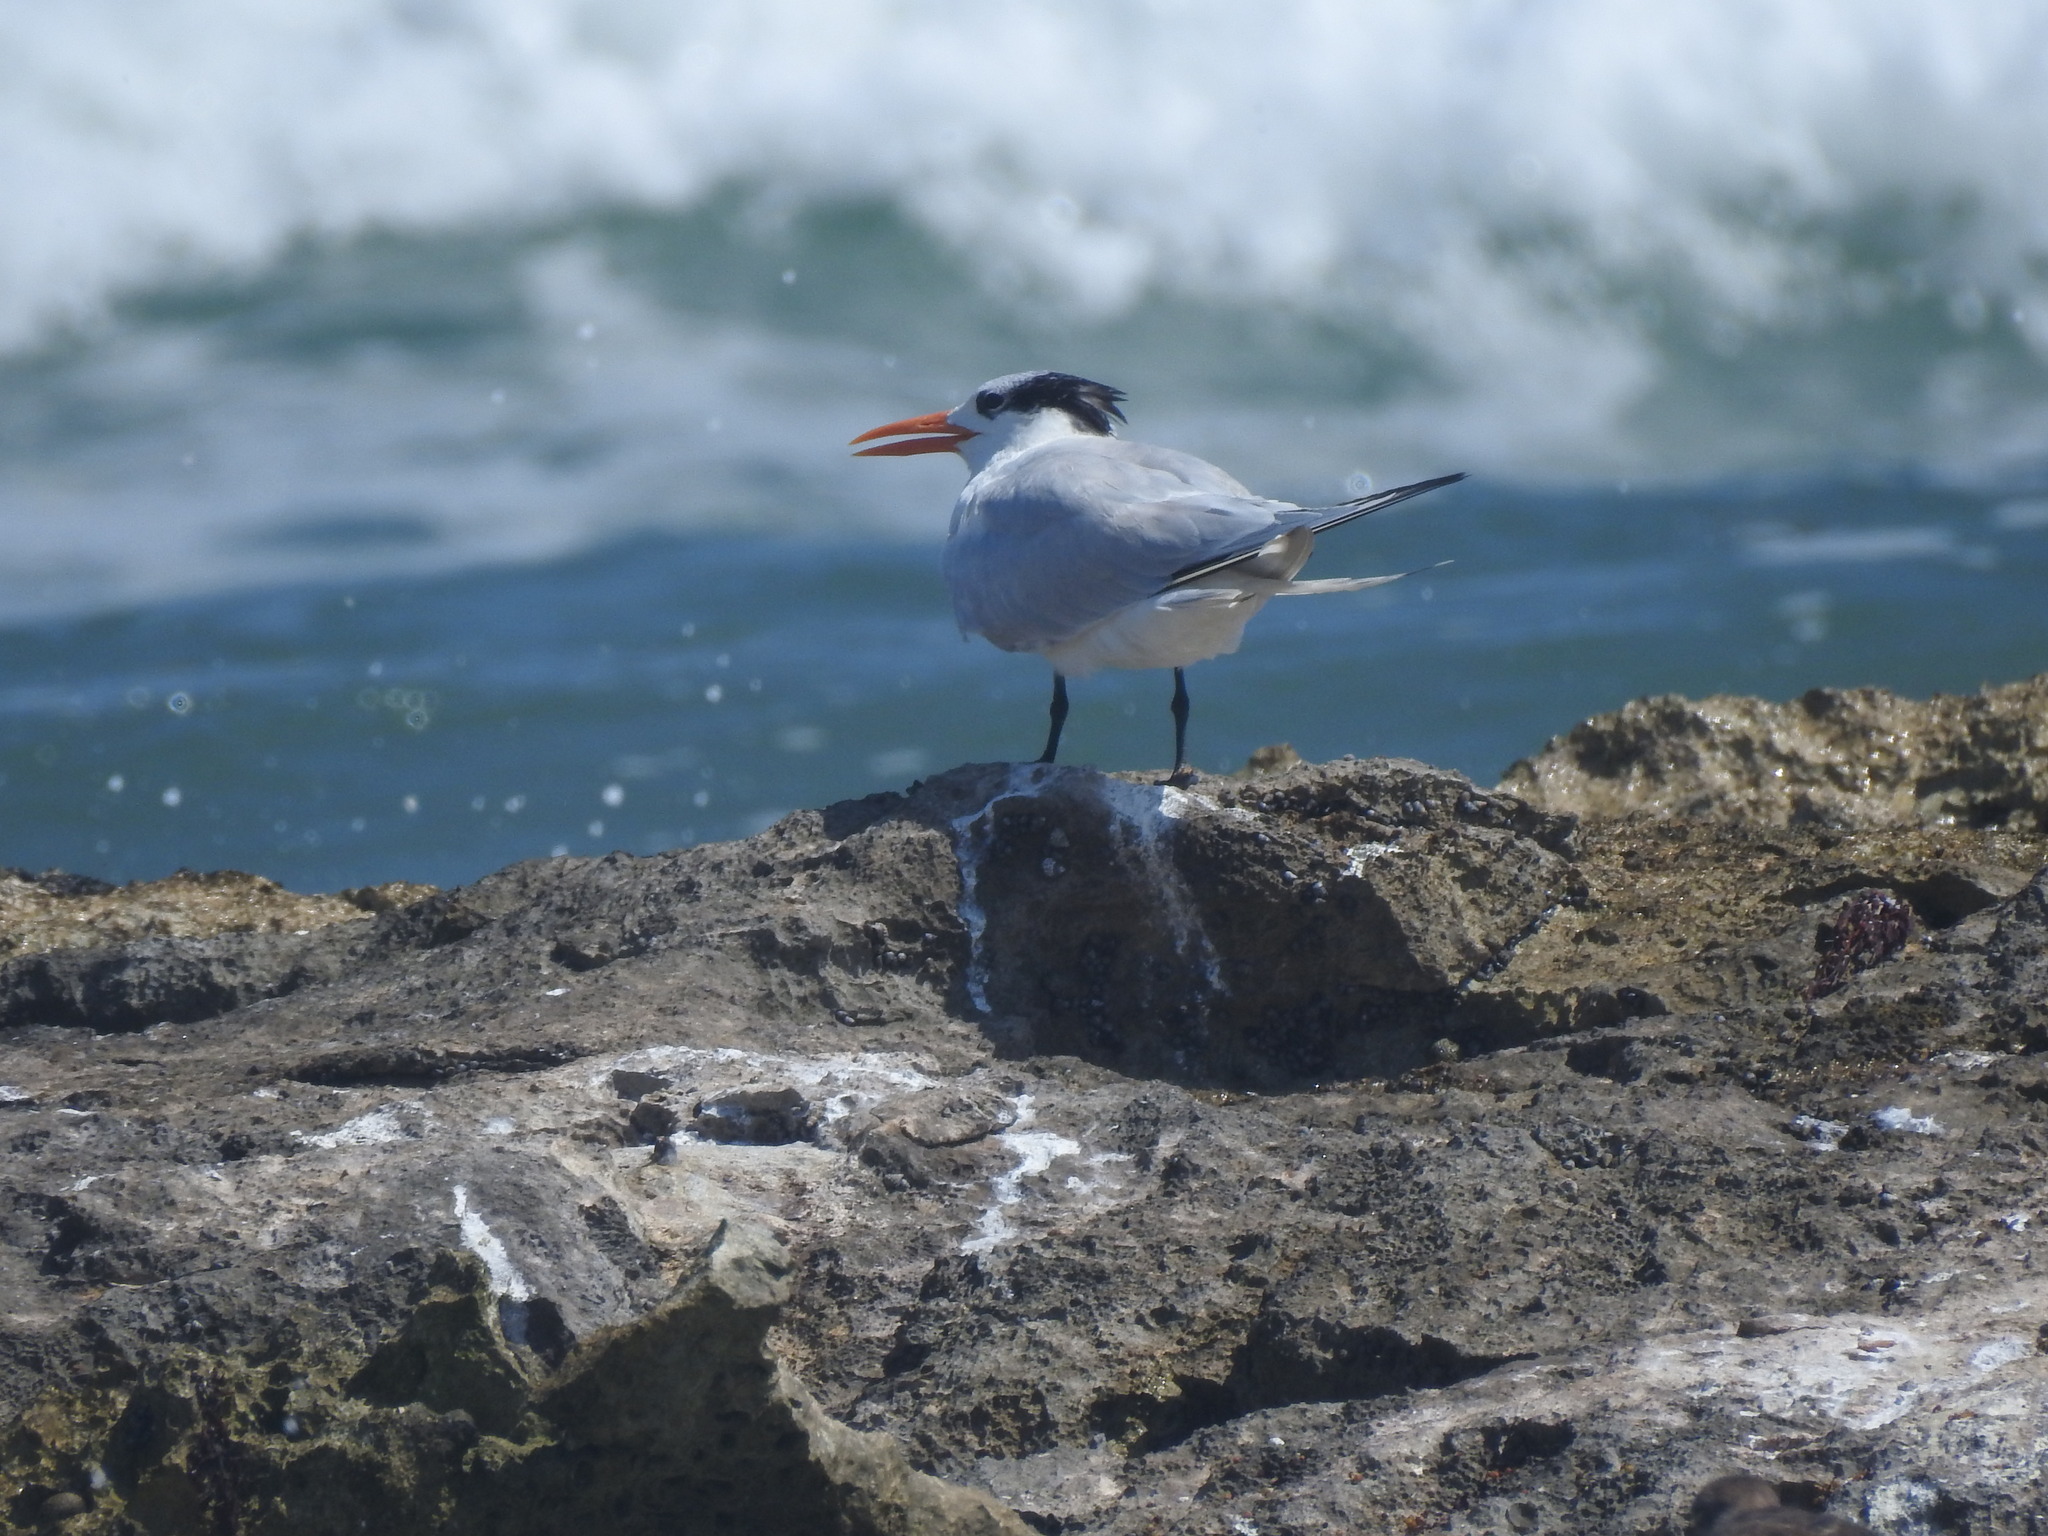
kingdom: Animalia
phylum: Chordata
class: Aves
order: Charadriiformes
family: Laridae
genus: Thalasseus
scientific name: Thalasseus maximus
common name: Royal tern
